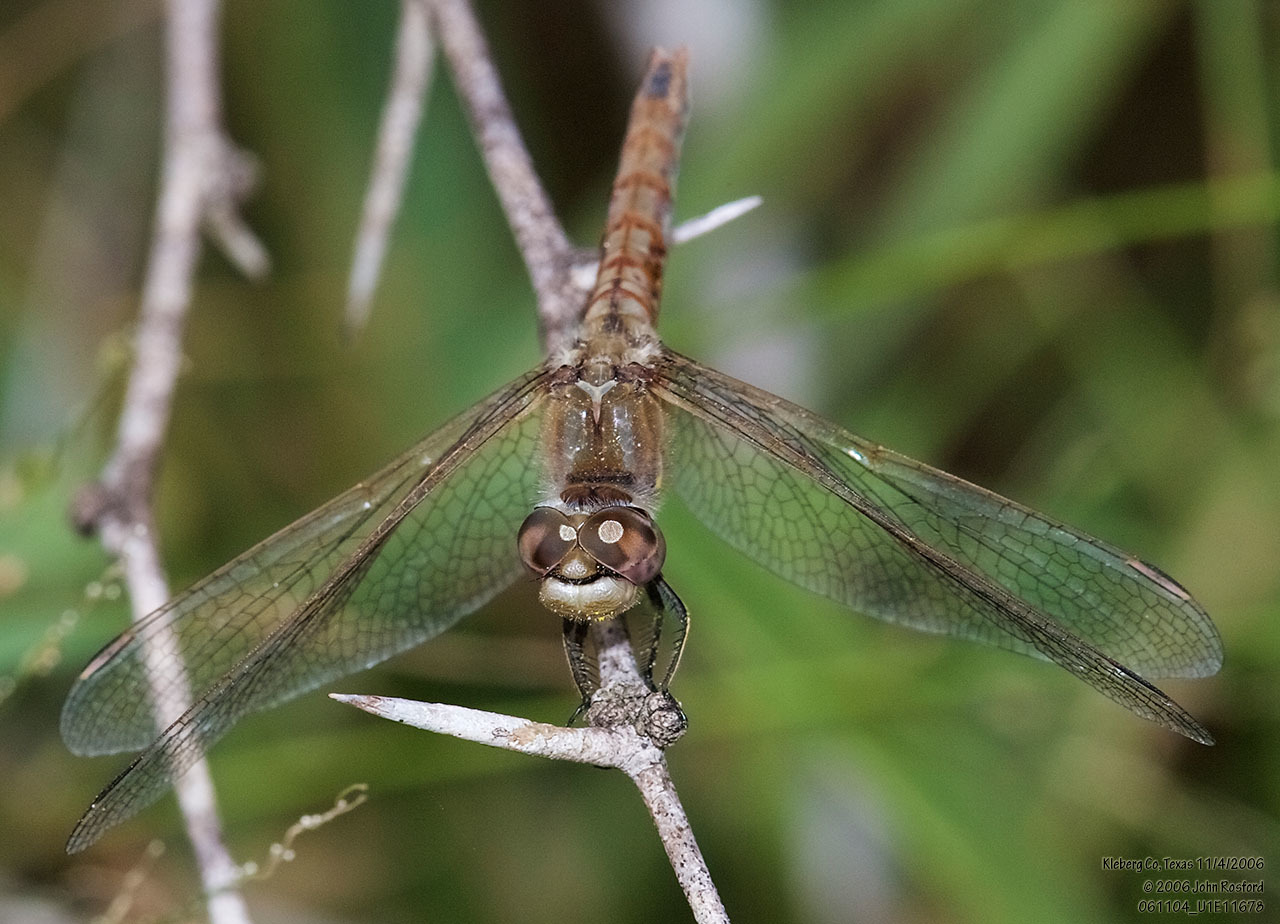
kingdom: Animalia
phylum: Arthropoda
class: Insecta
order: Odonata
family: Libellulidae
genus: Sympetrum
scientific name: Sympetrum corruptum
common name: Variegated meadowhawk
